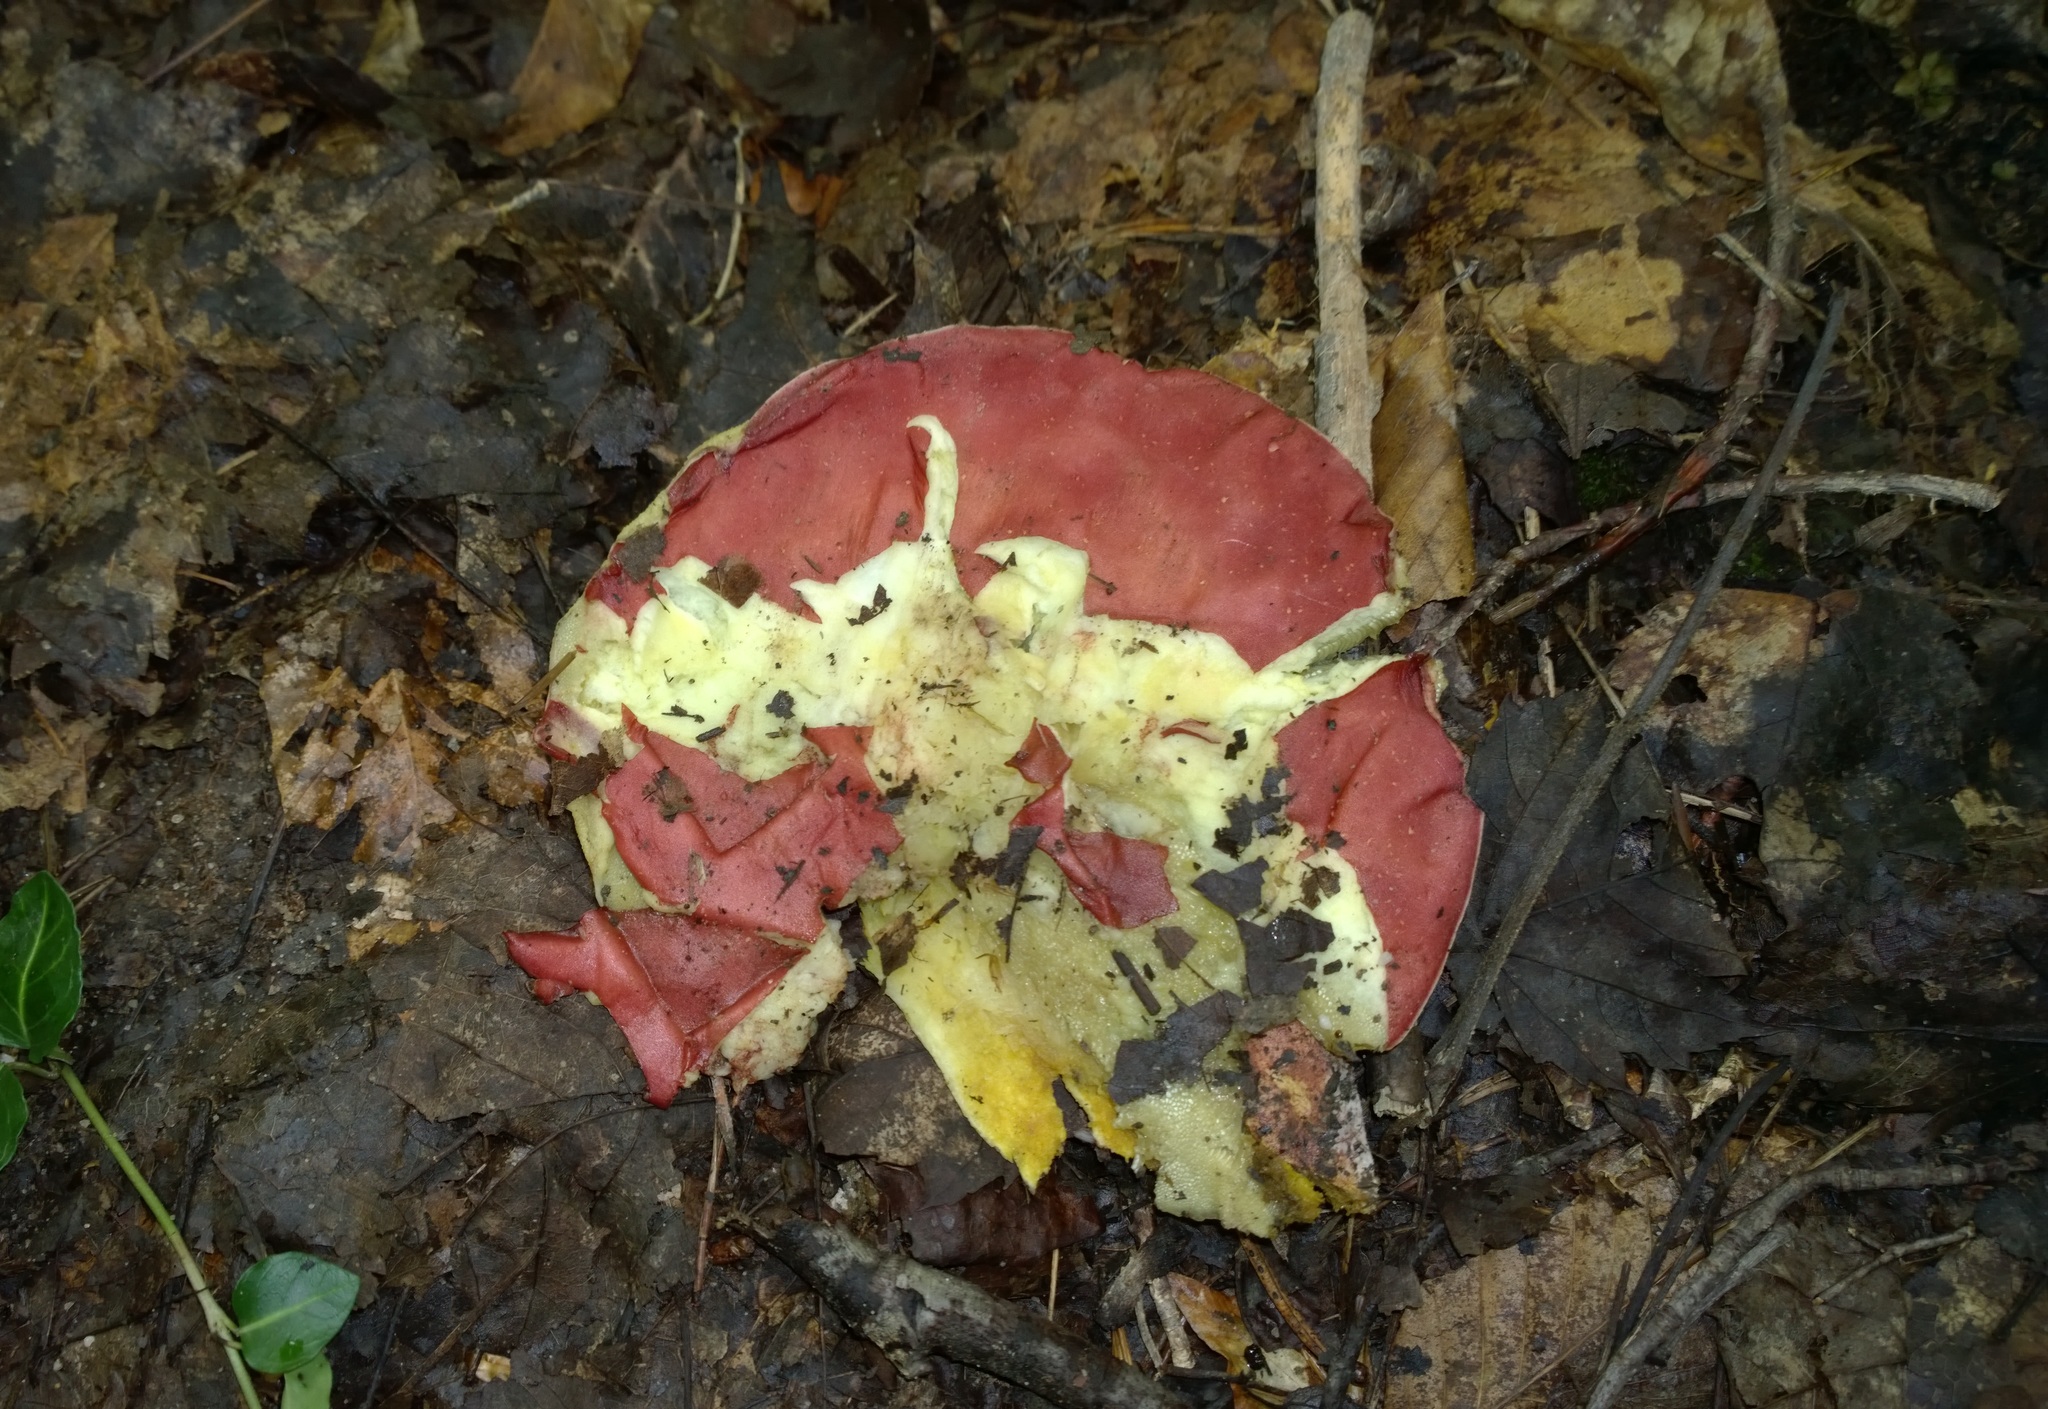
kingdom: Fungi
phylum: Basidiomycota
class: Agaricomycetes
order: Boletales
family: Boletaceae
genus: Boletus
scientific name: Boletus roodyi
